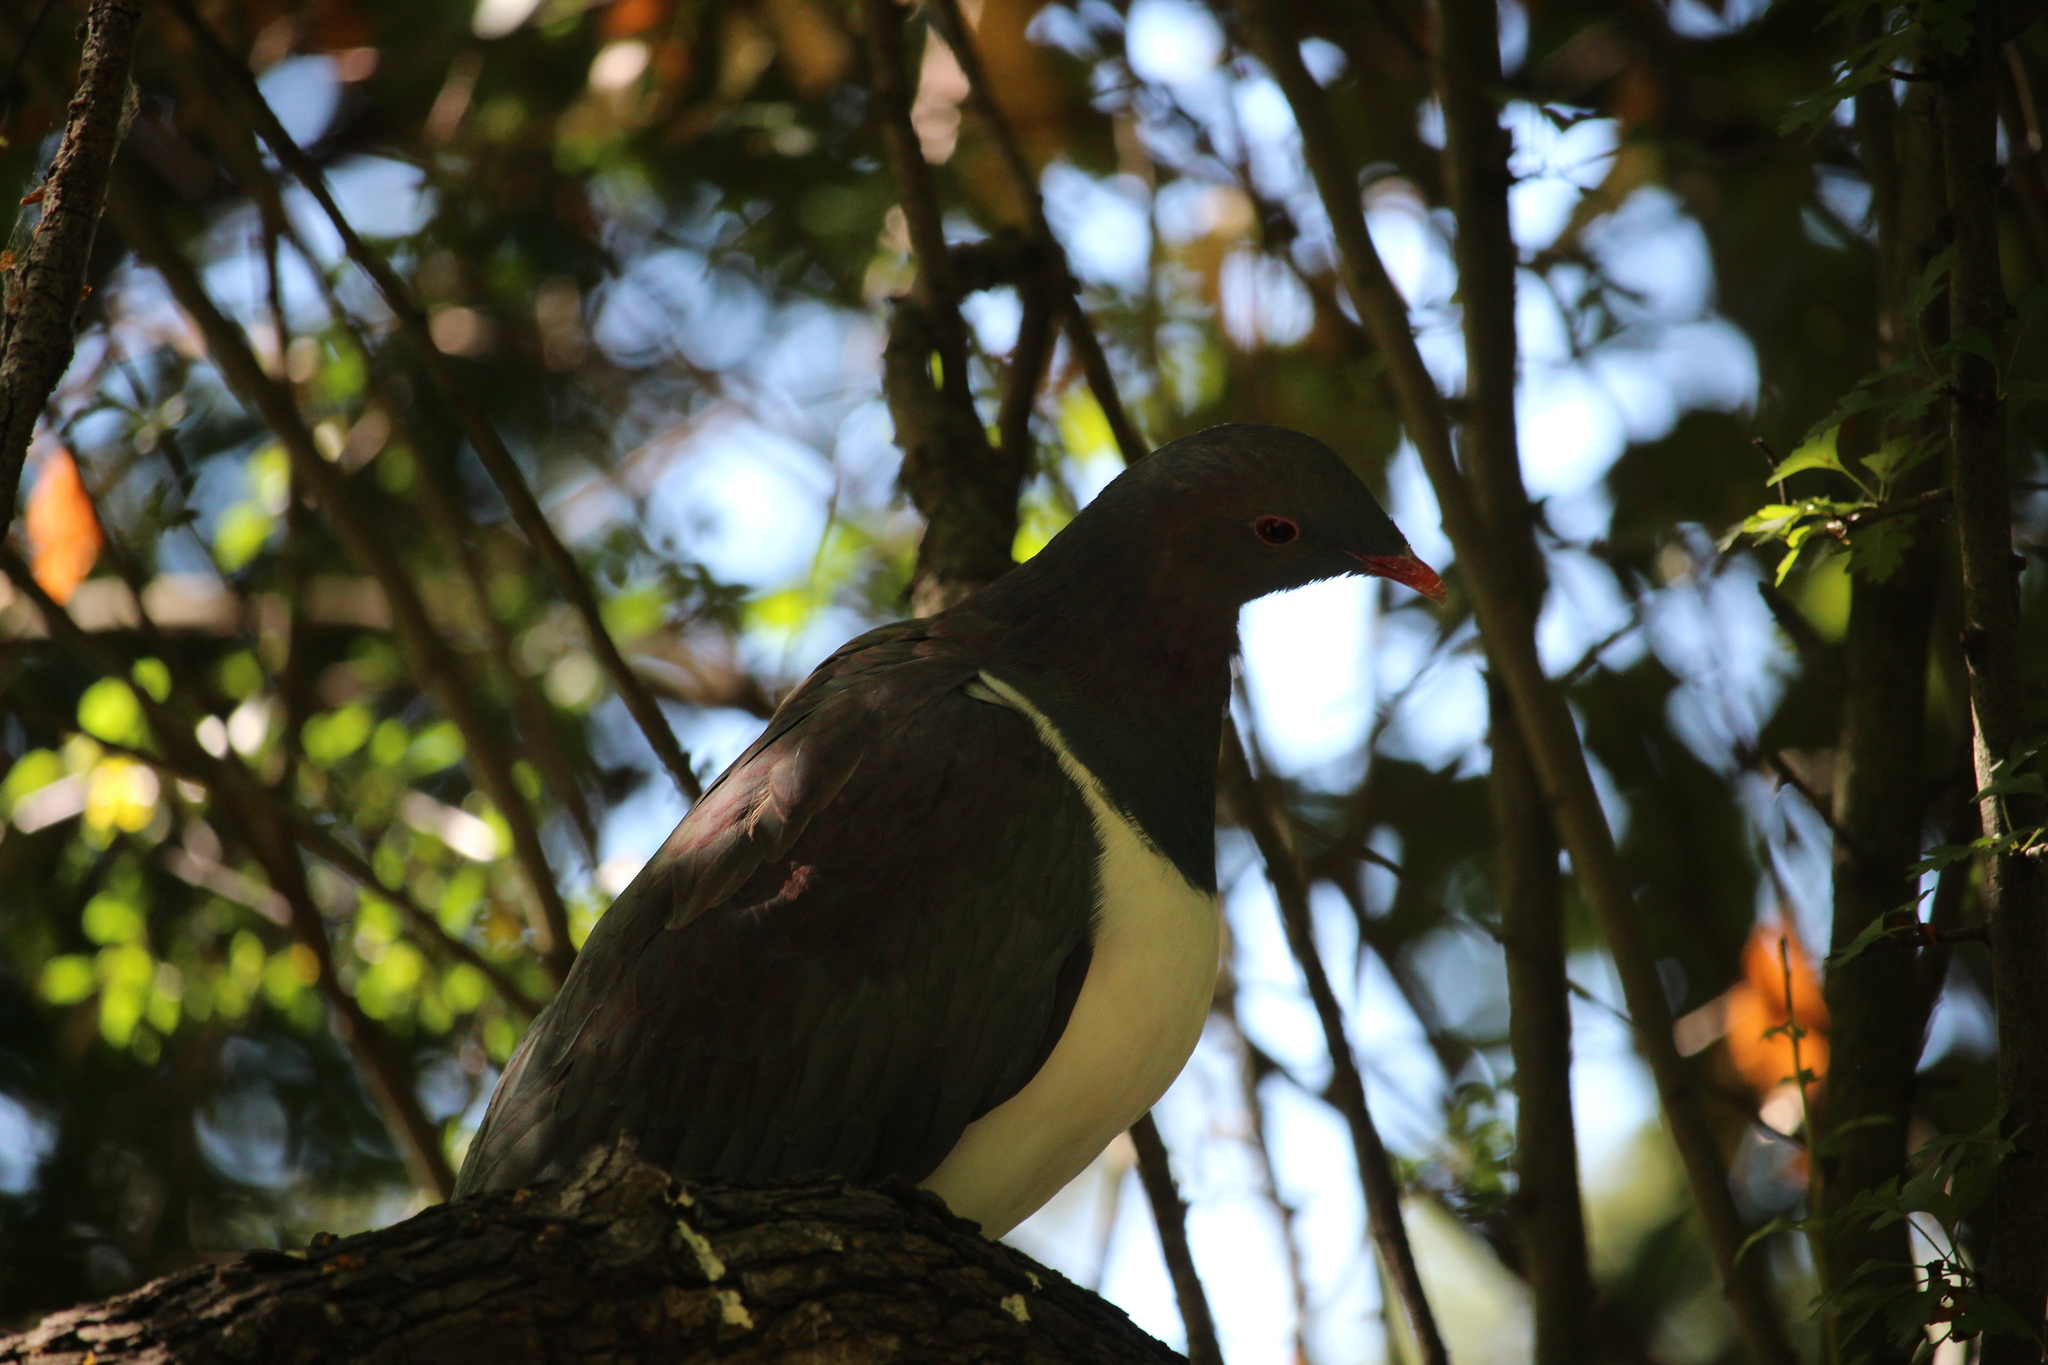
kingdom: Animalia
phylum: Chordata
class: Aves
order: Columbiformes
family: Columbidae
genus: Hemiphaga
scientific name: Hemiphaga novaeseelandiae
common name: New zealand pigeon
